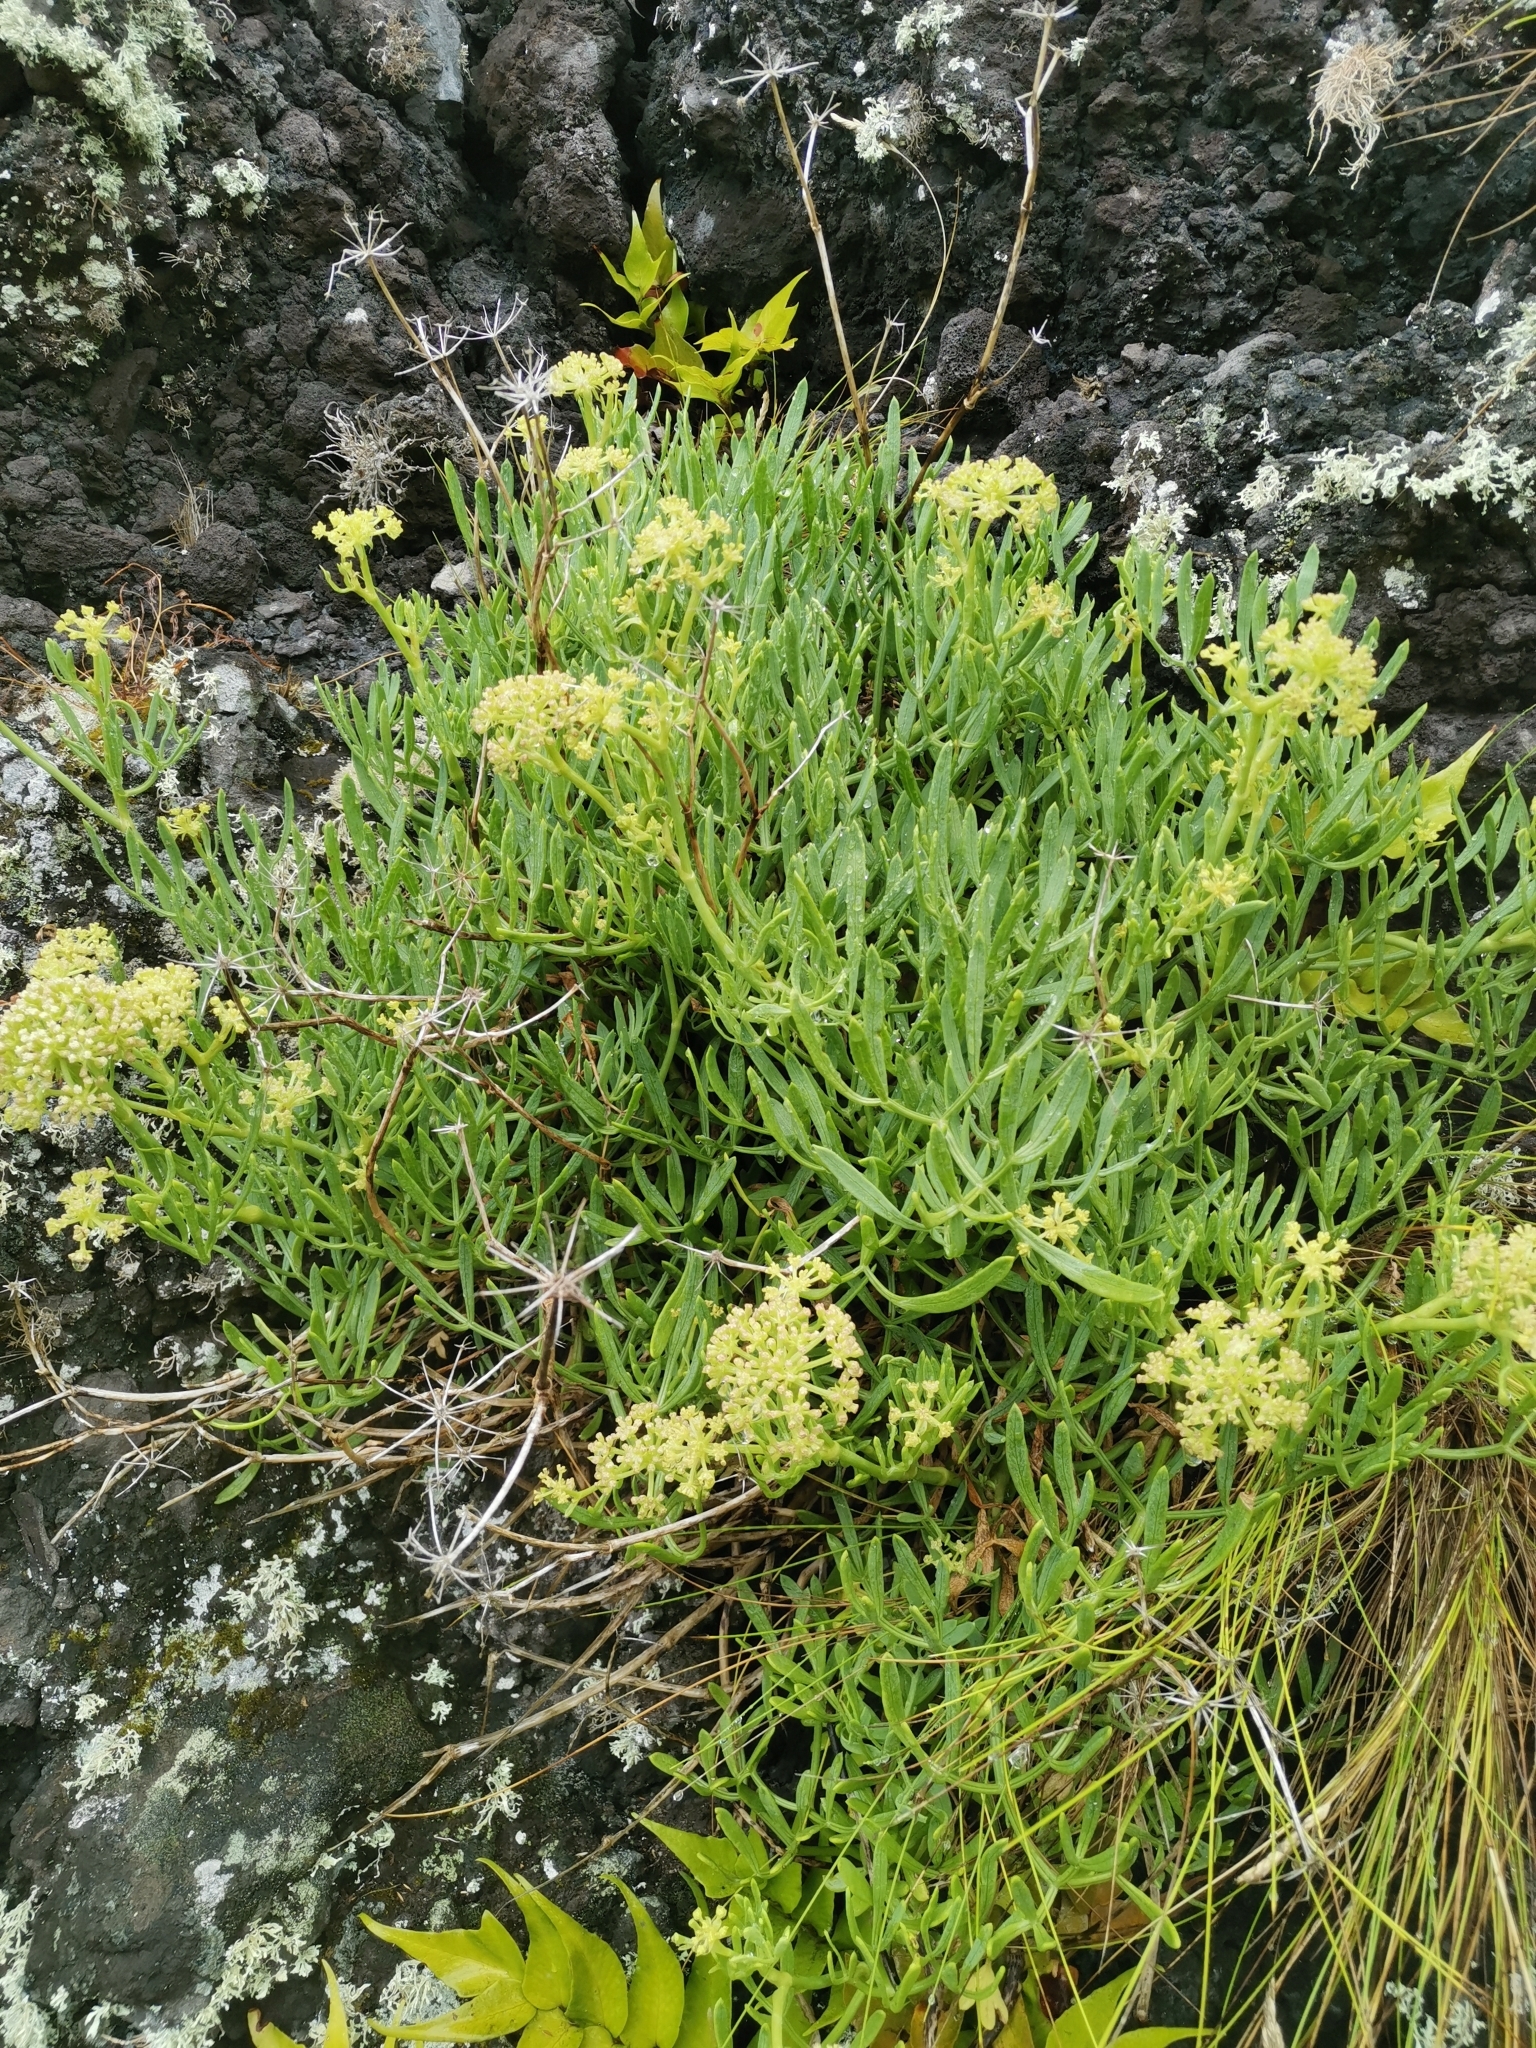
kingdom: Plantae
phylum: Tracheophyta
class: Magnoliopsida
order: Apiales
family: Apiaceae
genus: Crithmum
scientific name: Crithmum maritimum
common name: Rock samphire
